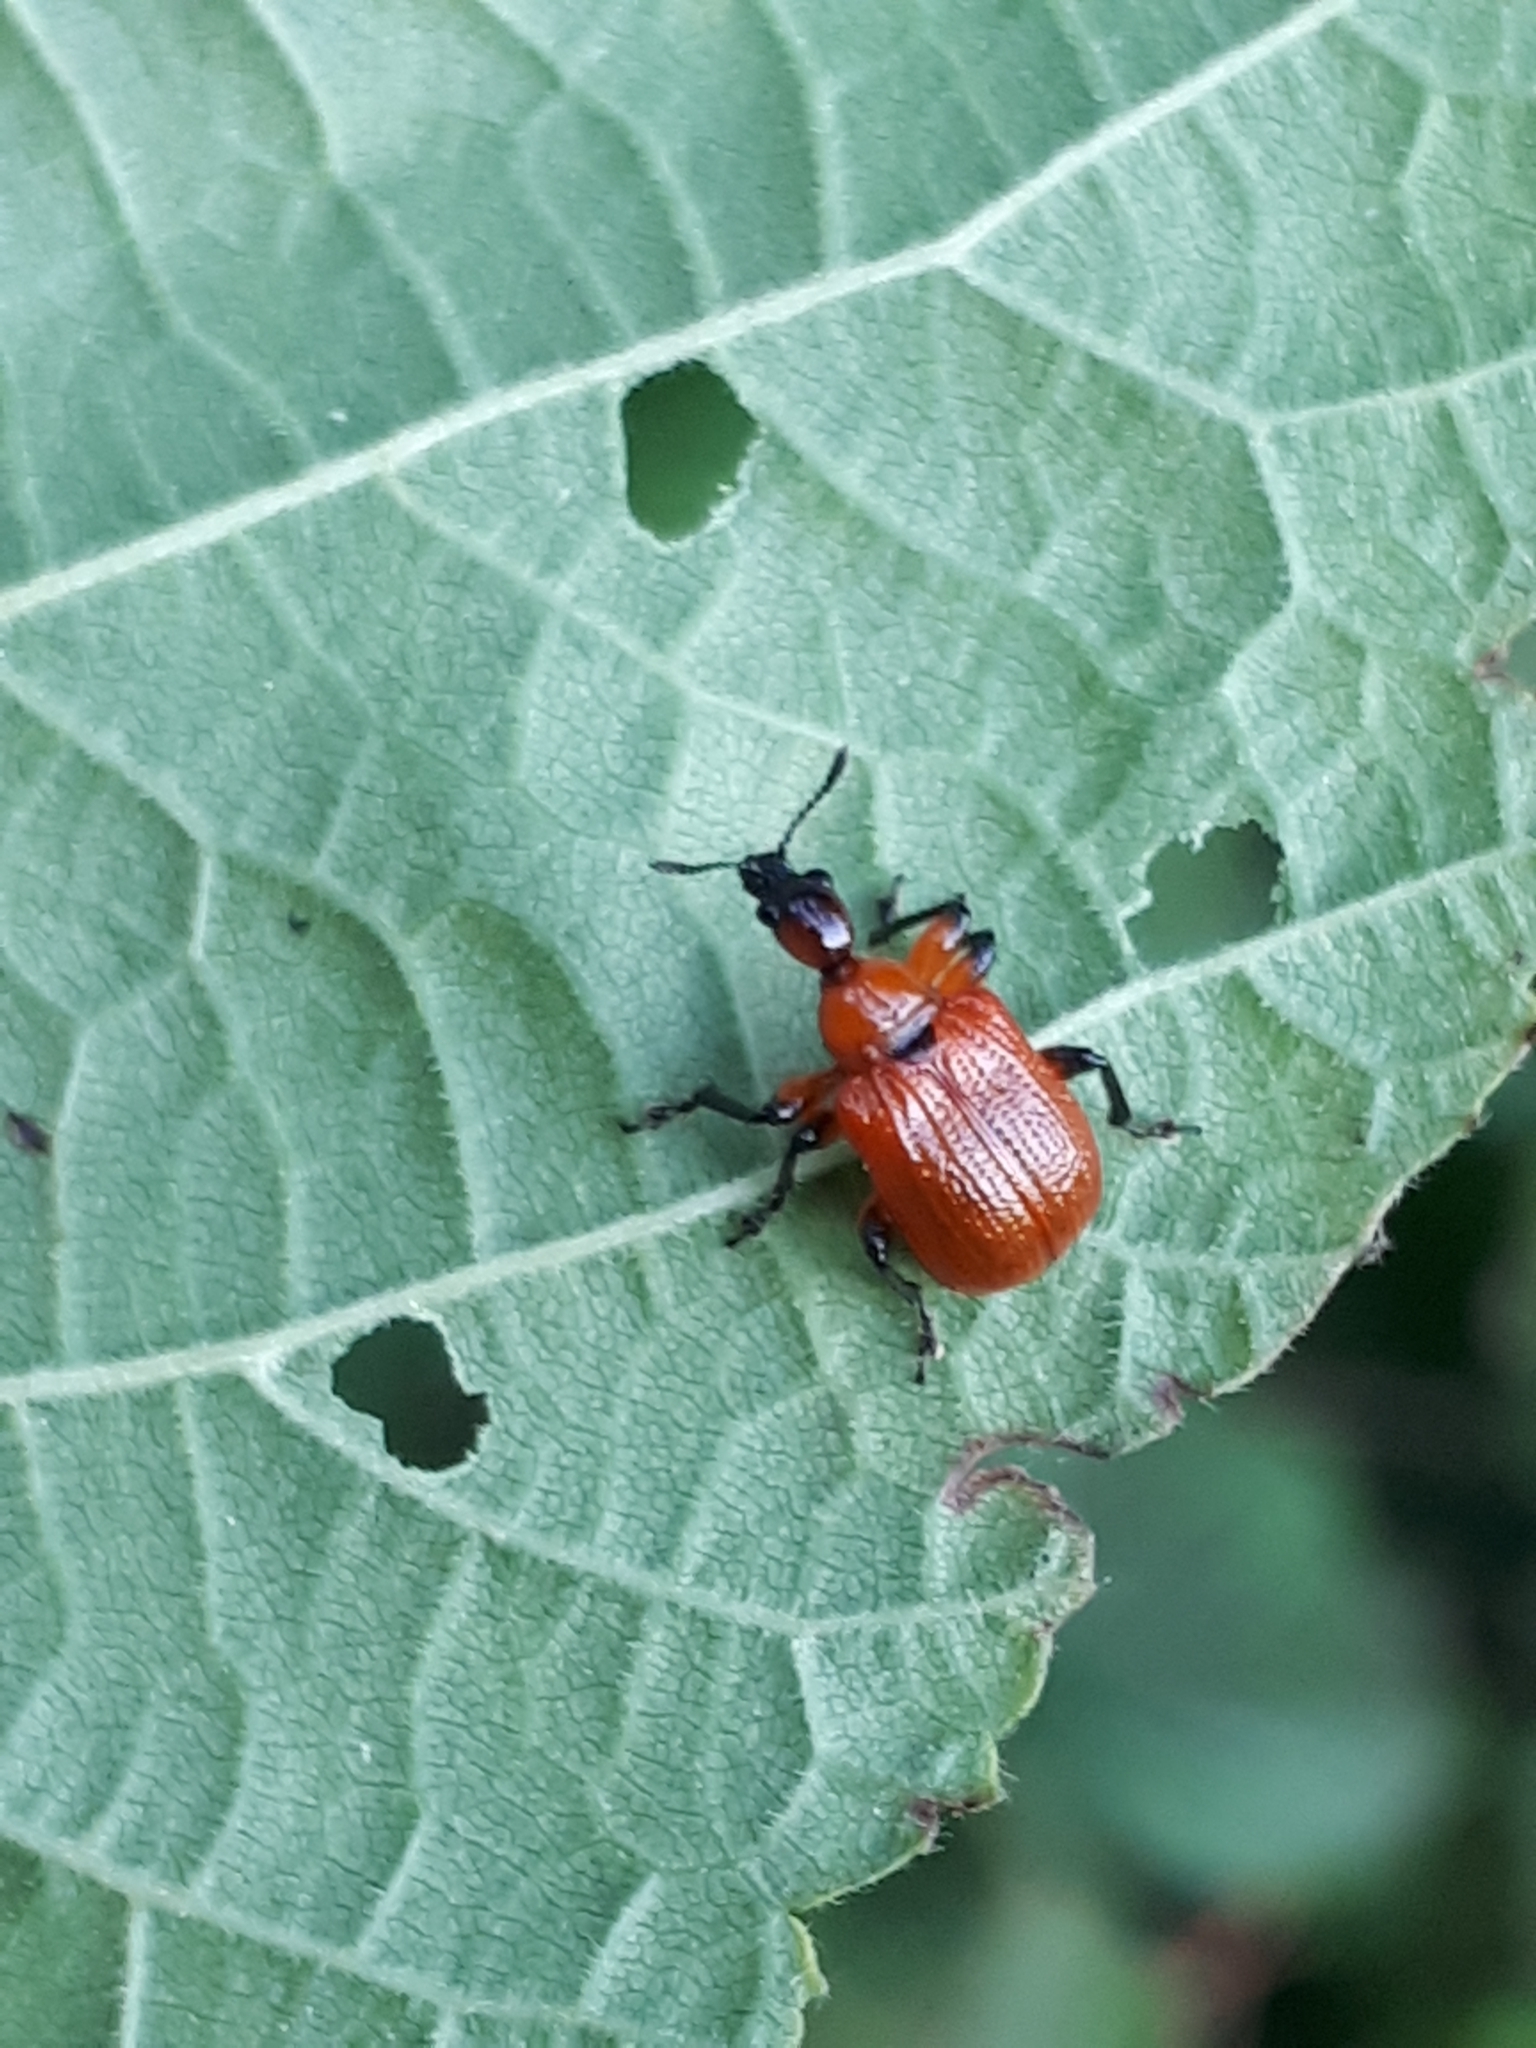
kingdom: Animalia
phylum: Arthropoda
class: Insecta
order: Coleoptera
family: Attelabidae
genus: Apoderus
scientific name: Apoderus coryli
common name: Hazel leaf roller
